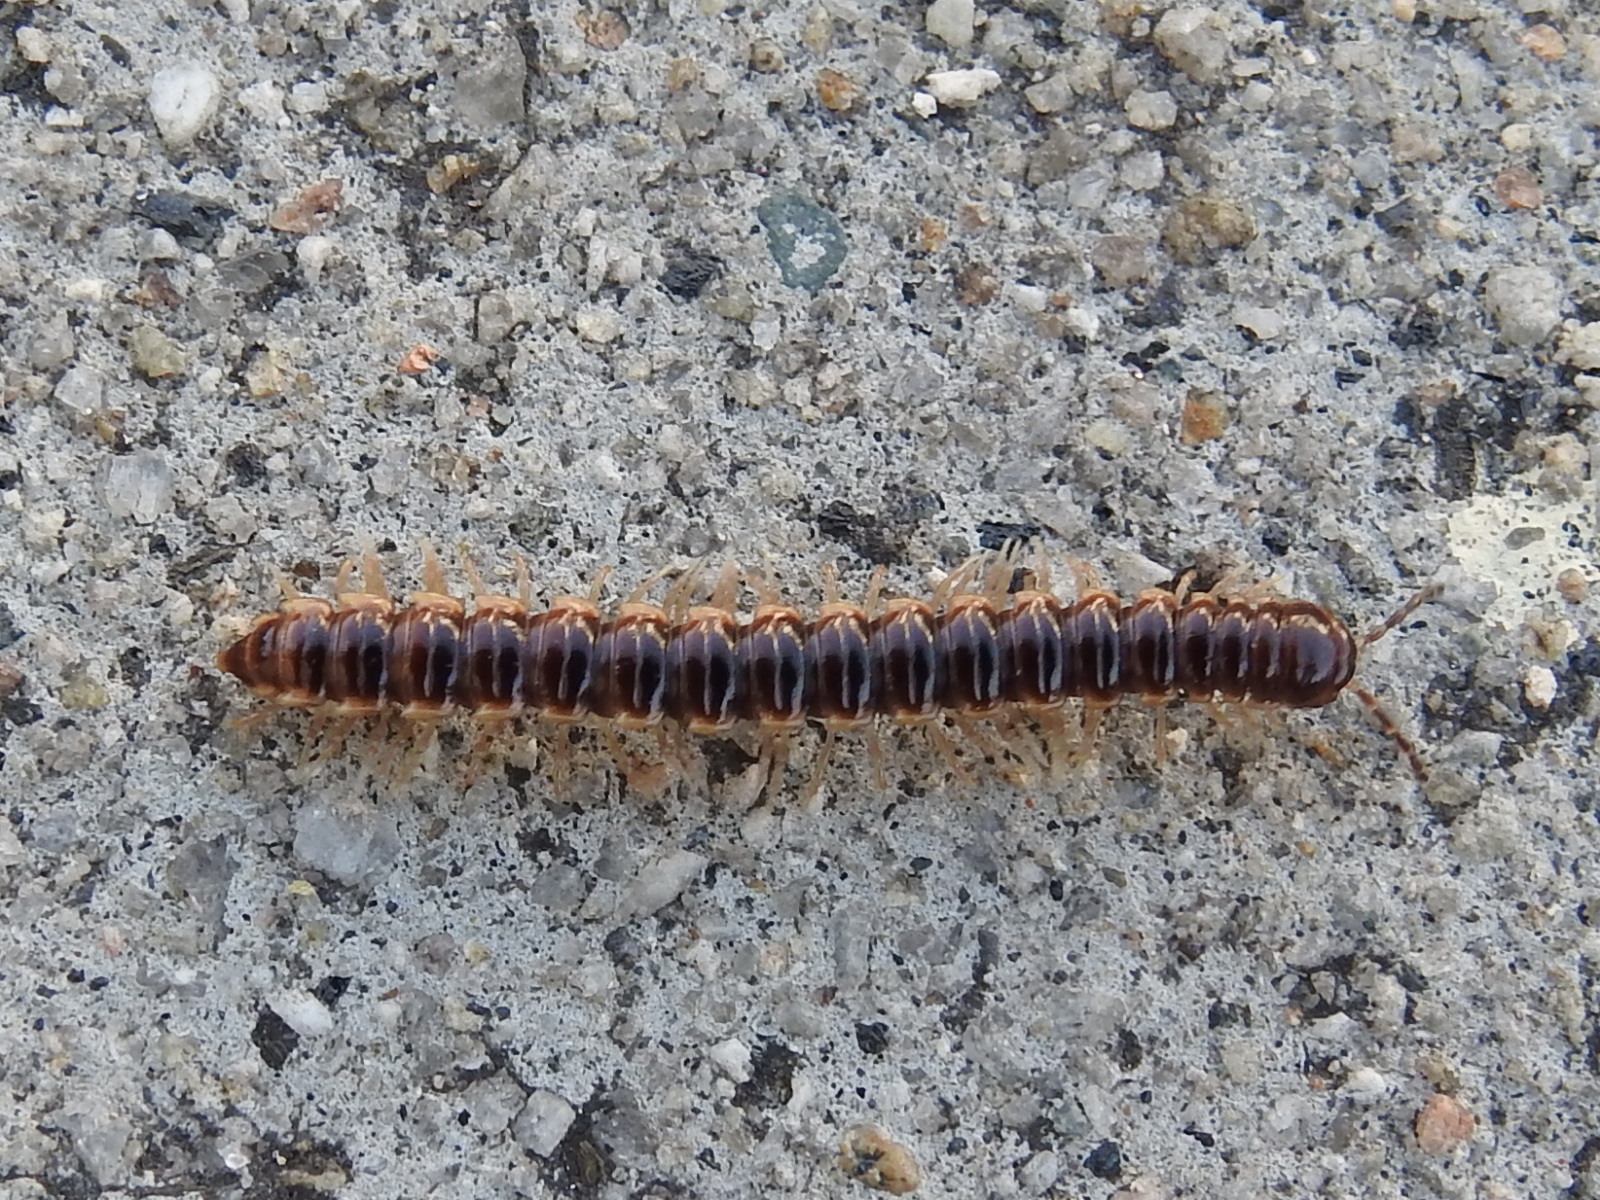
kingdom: Animalia
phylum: Arthropoda
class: Diplopoda
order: Polydesmida
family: Paradoxosomatidae
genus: Oxidus
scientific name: Oxidus gracilis
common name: Greenhouse millipede
